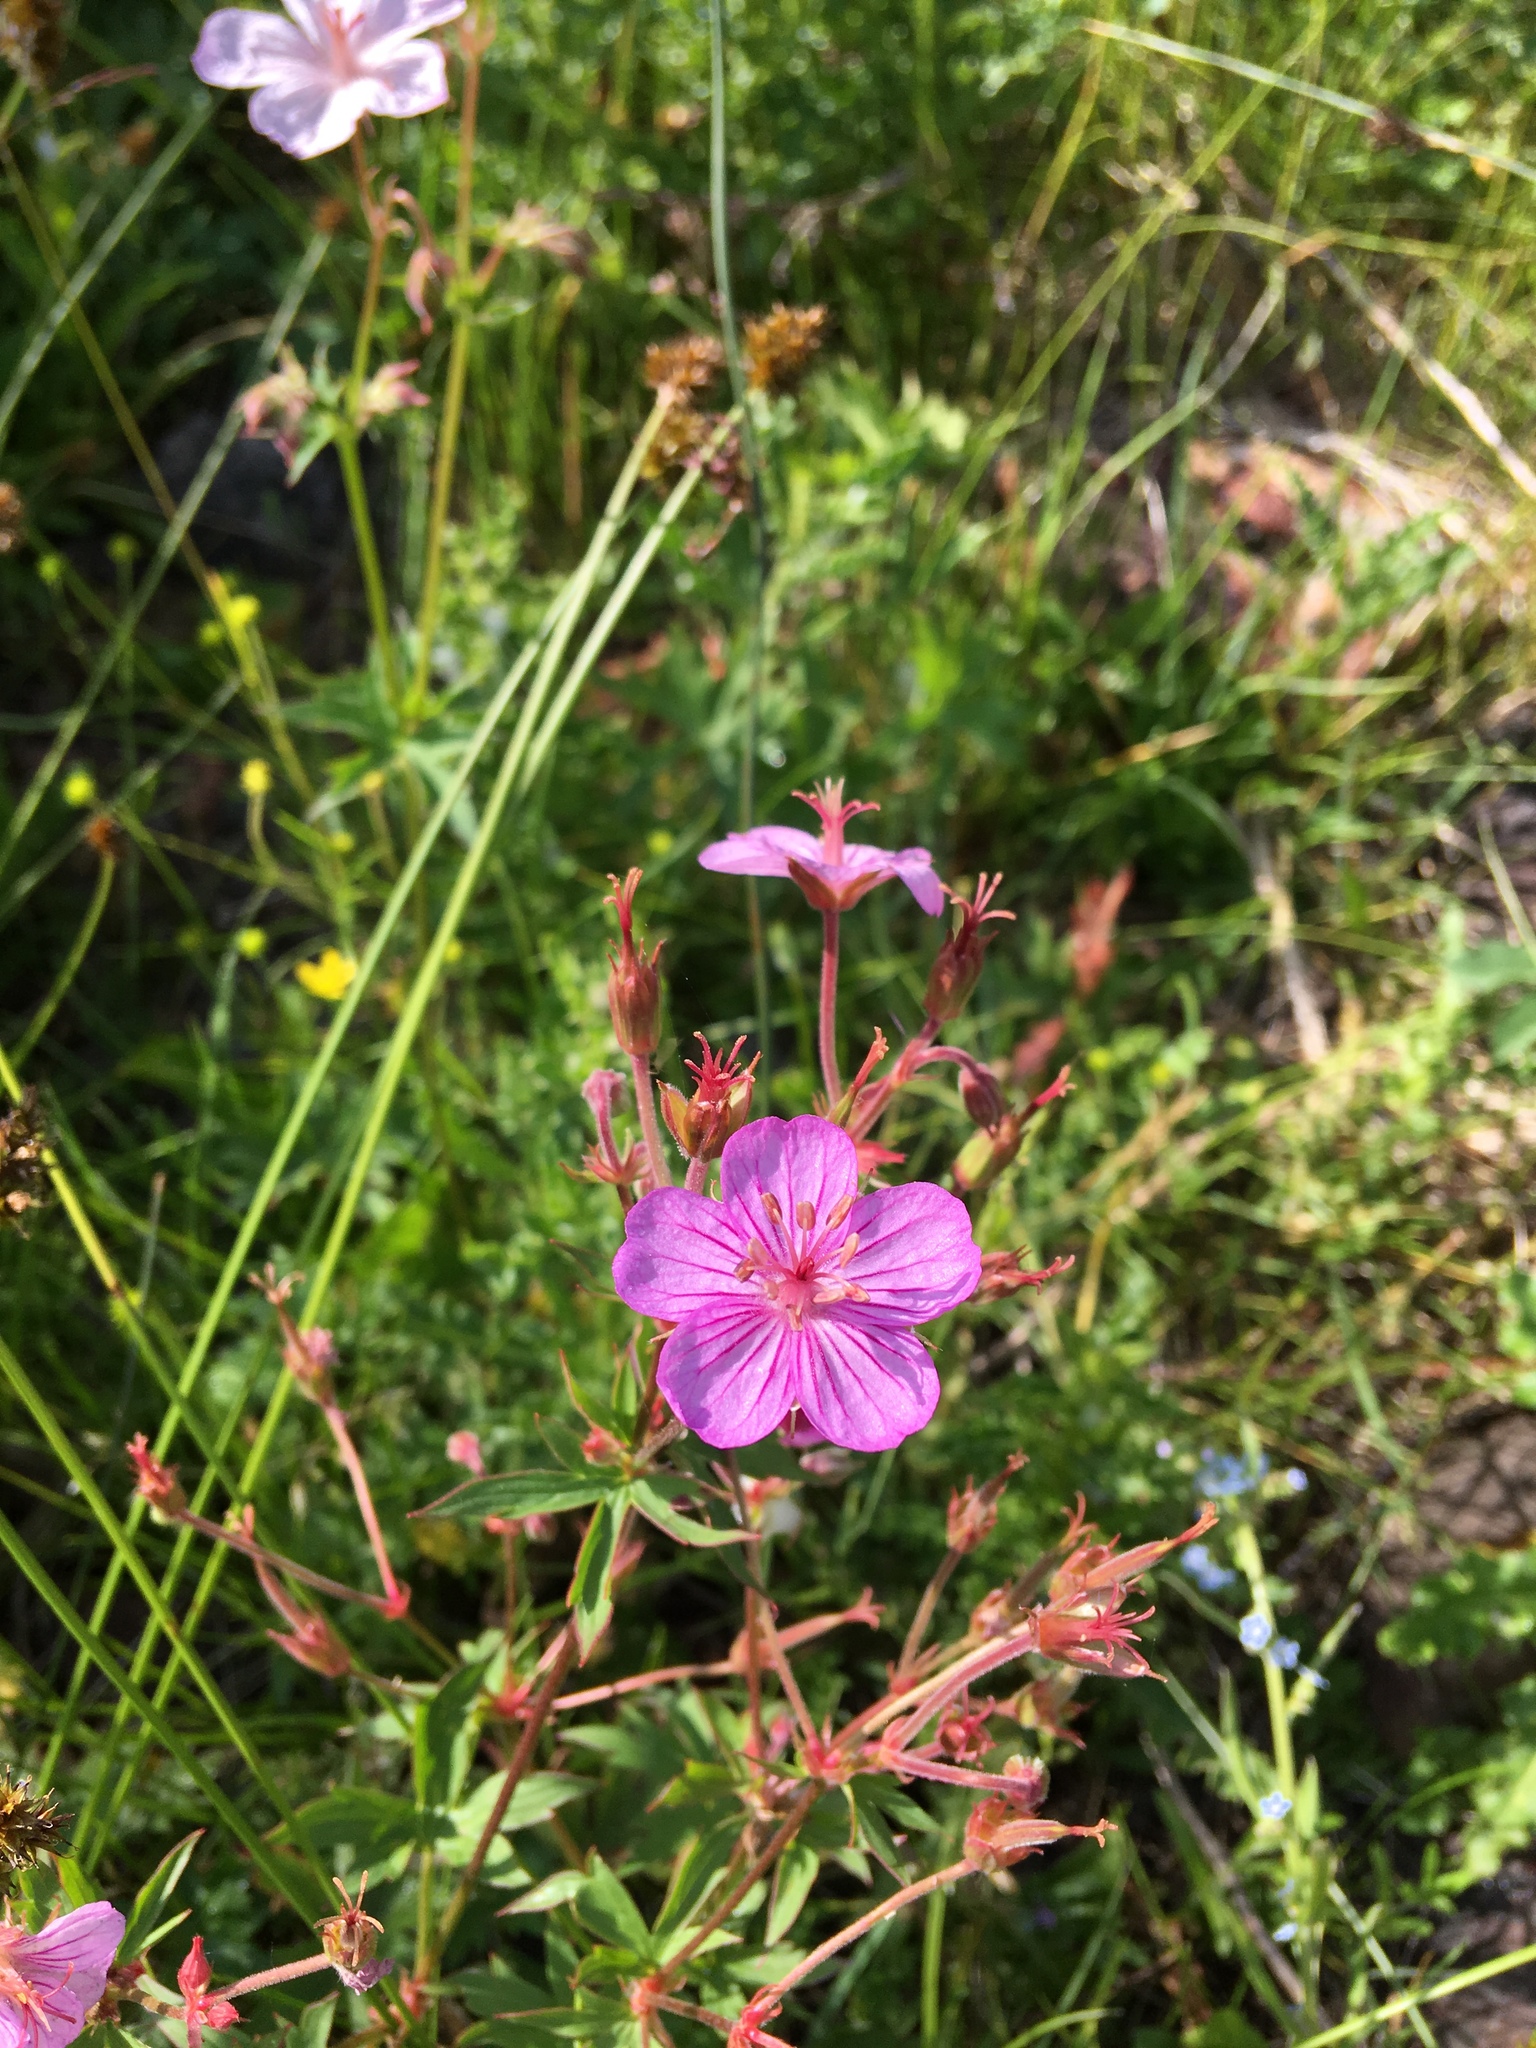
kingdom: Plantae
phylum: Tracheophyta
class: Magnoliopsida
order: Geraniales
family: Geraniaceae
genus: Geranium
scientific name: Geranium viscosissimum
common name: Purple geranium
